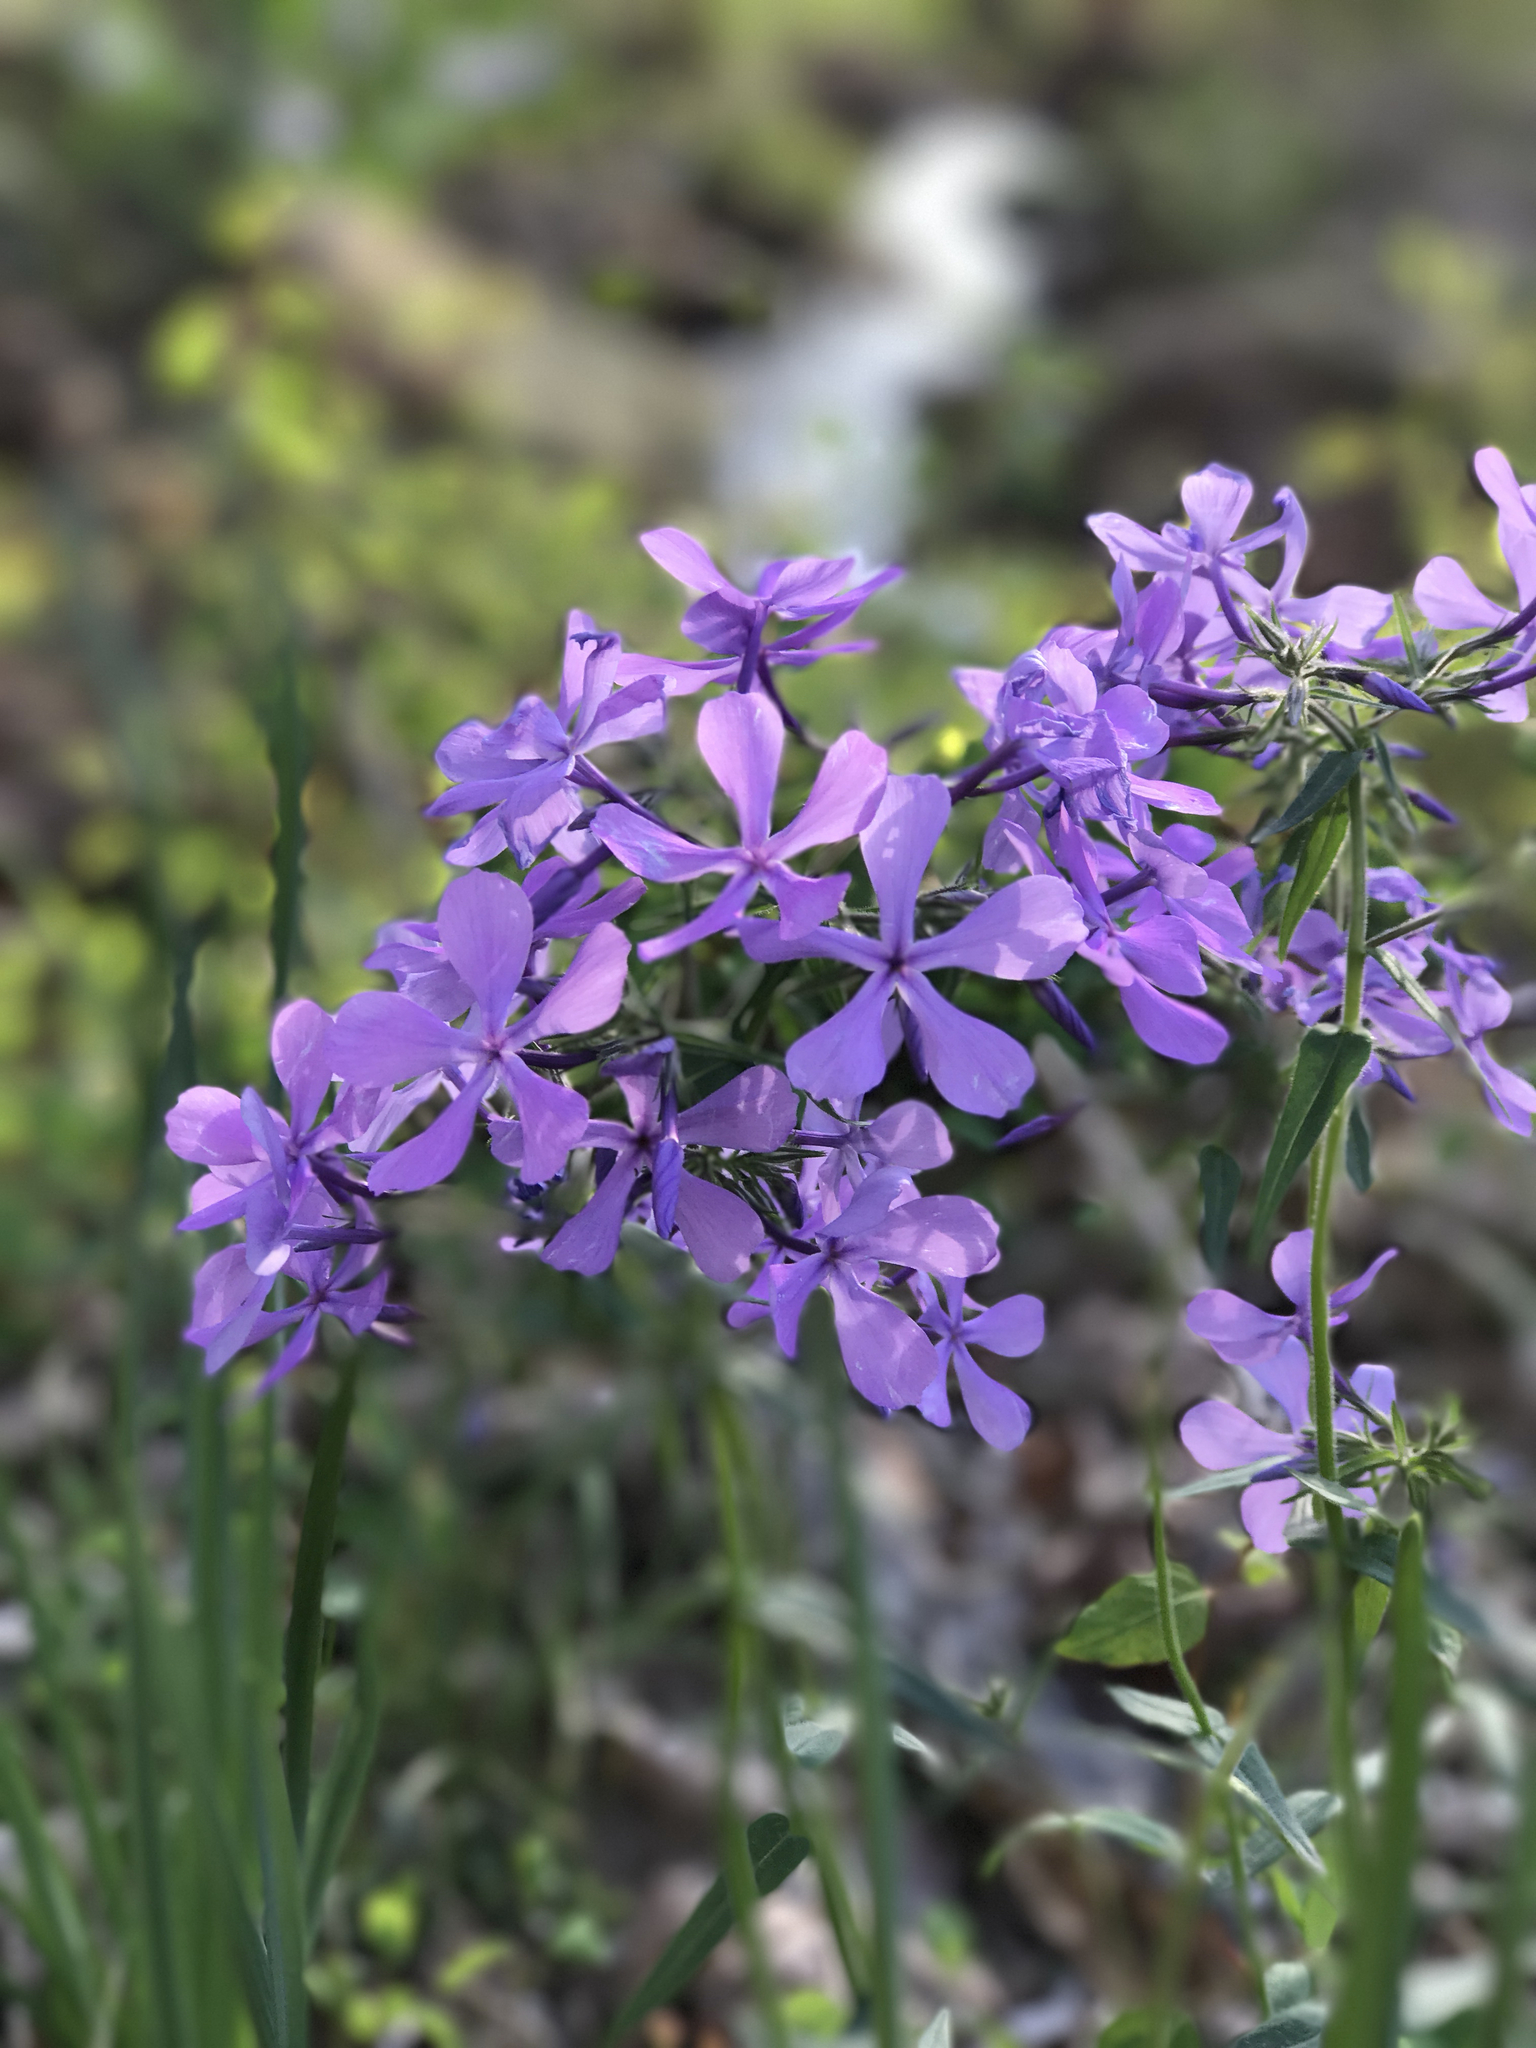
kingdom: Plantae
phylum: Tracheophyta
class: Magnoliopsida
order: Ericales
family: Polemoniaceae
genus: Phlox
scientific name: Phlox divaricata
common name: Blue phlox
